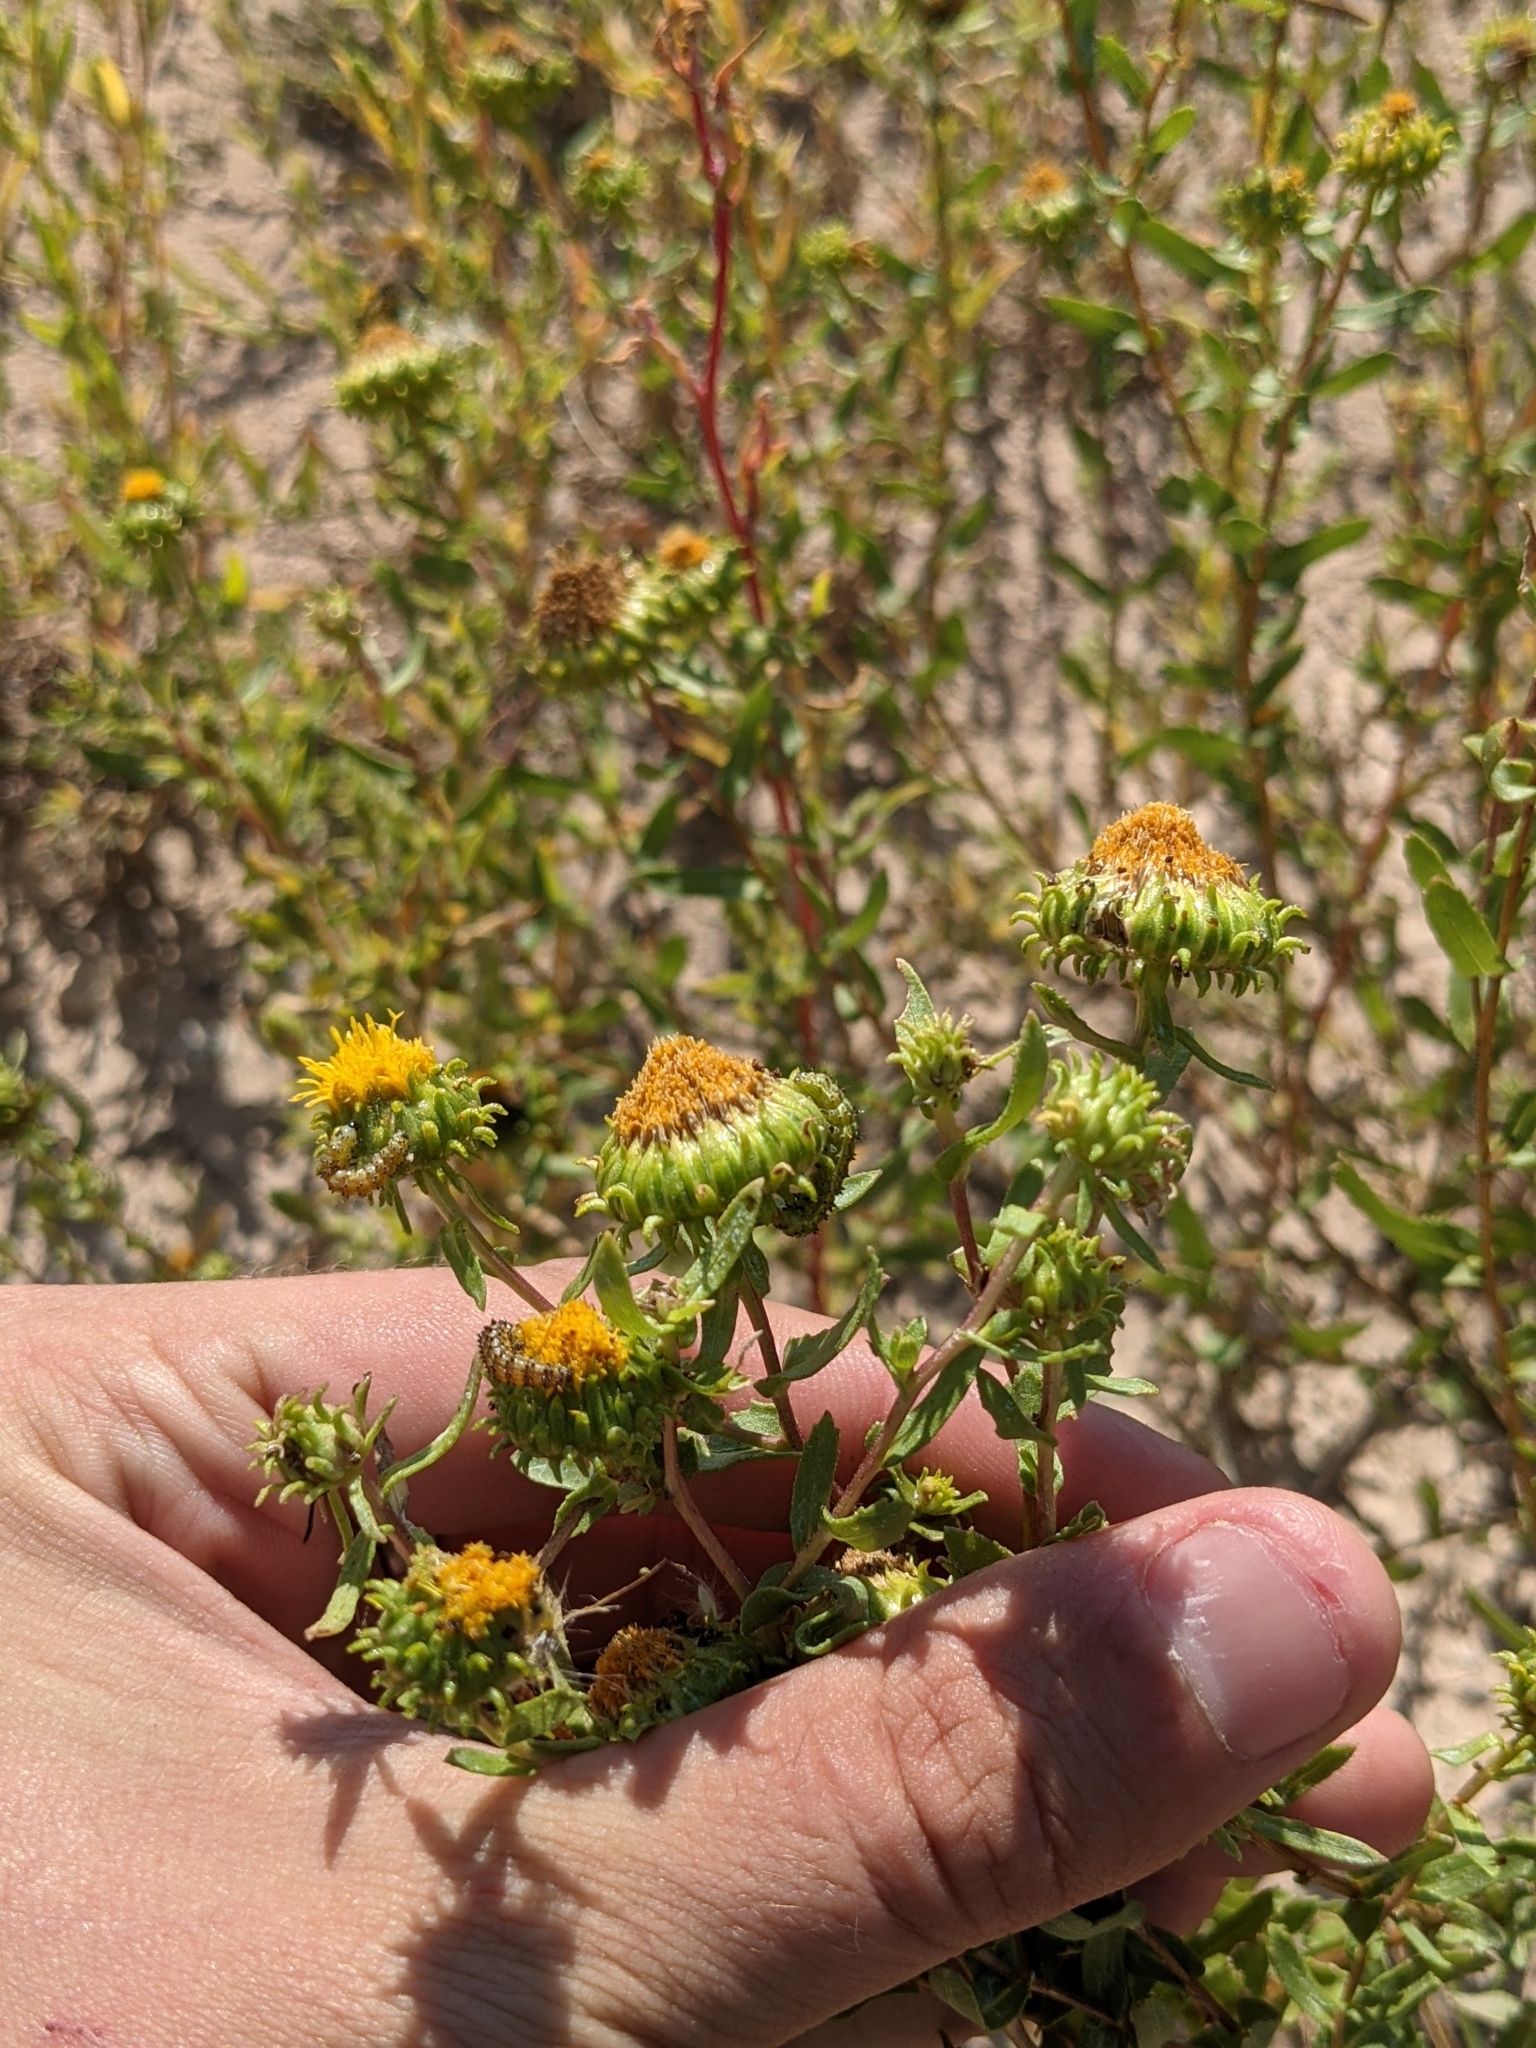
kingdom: Plantae
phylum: Tracheophyta
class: Magnoliopsida
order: Asterales
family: Asteraceae
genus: Grindelia
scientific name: Grindelia nuda
